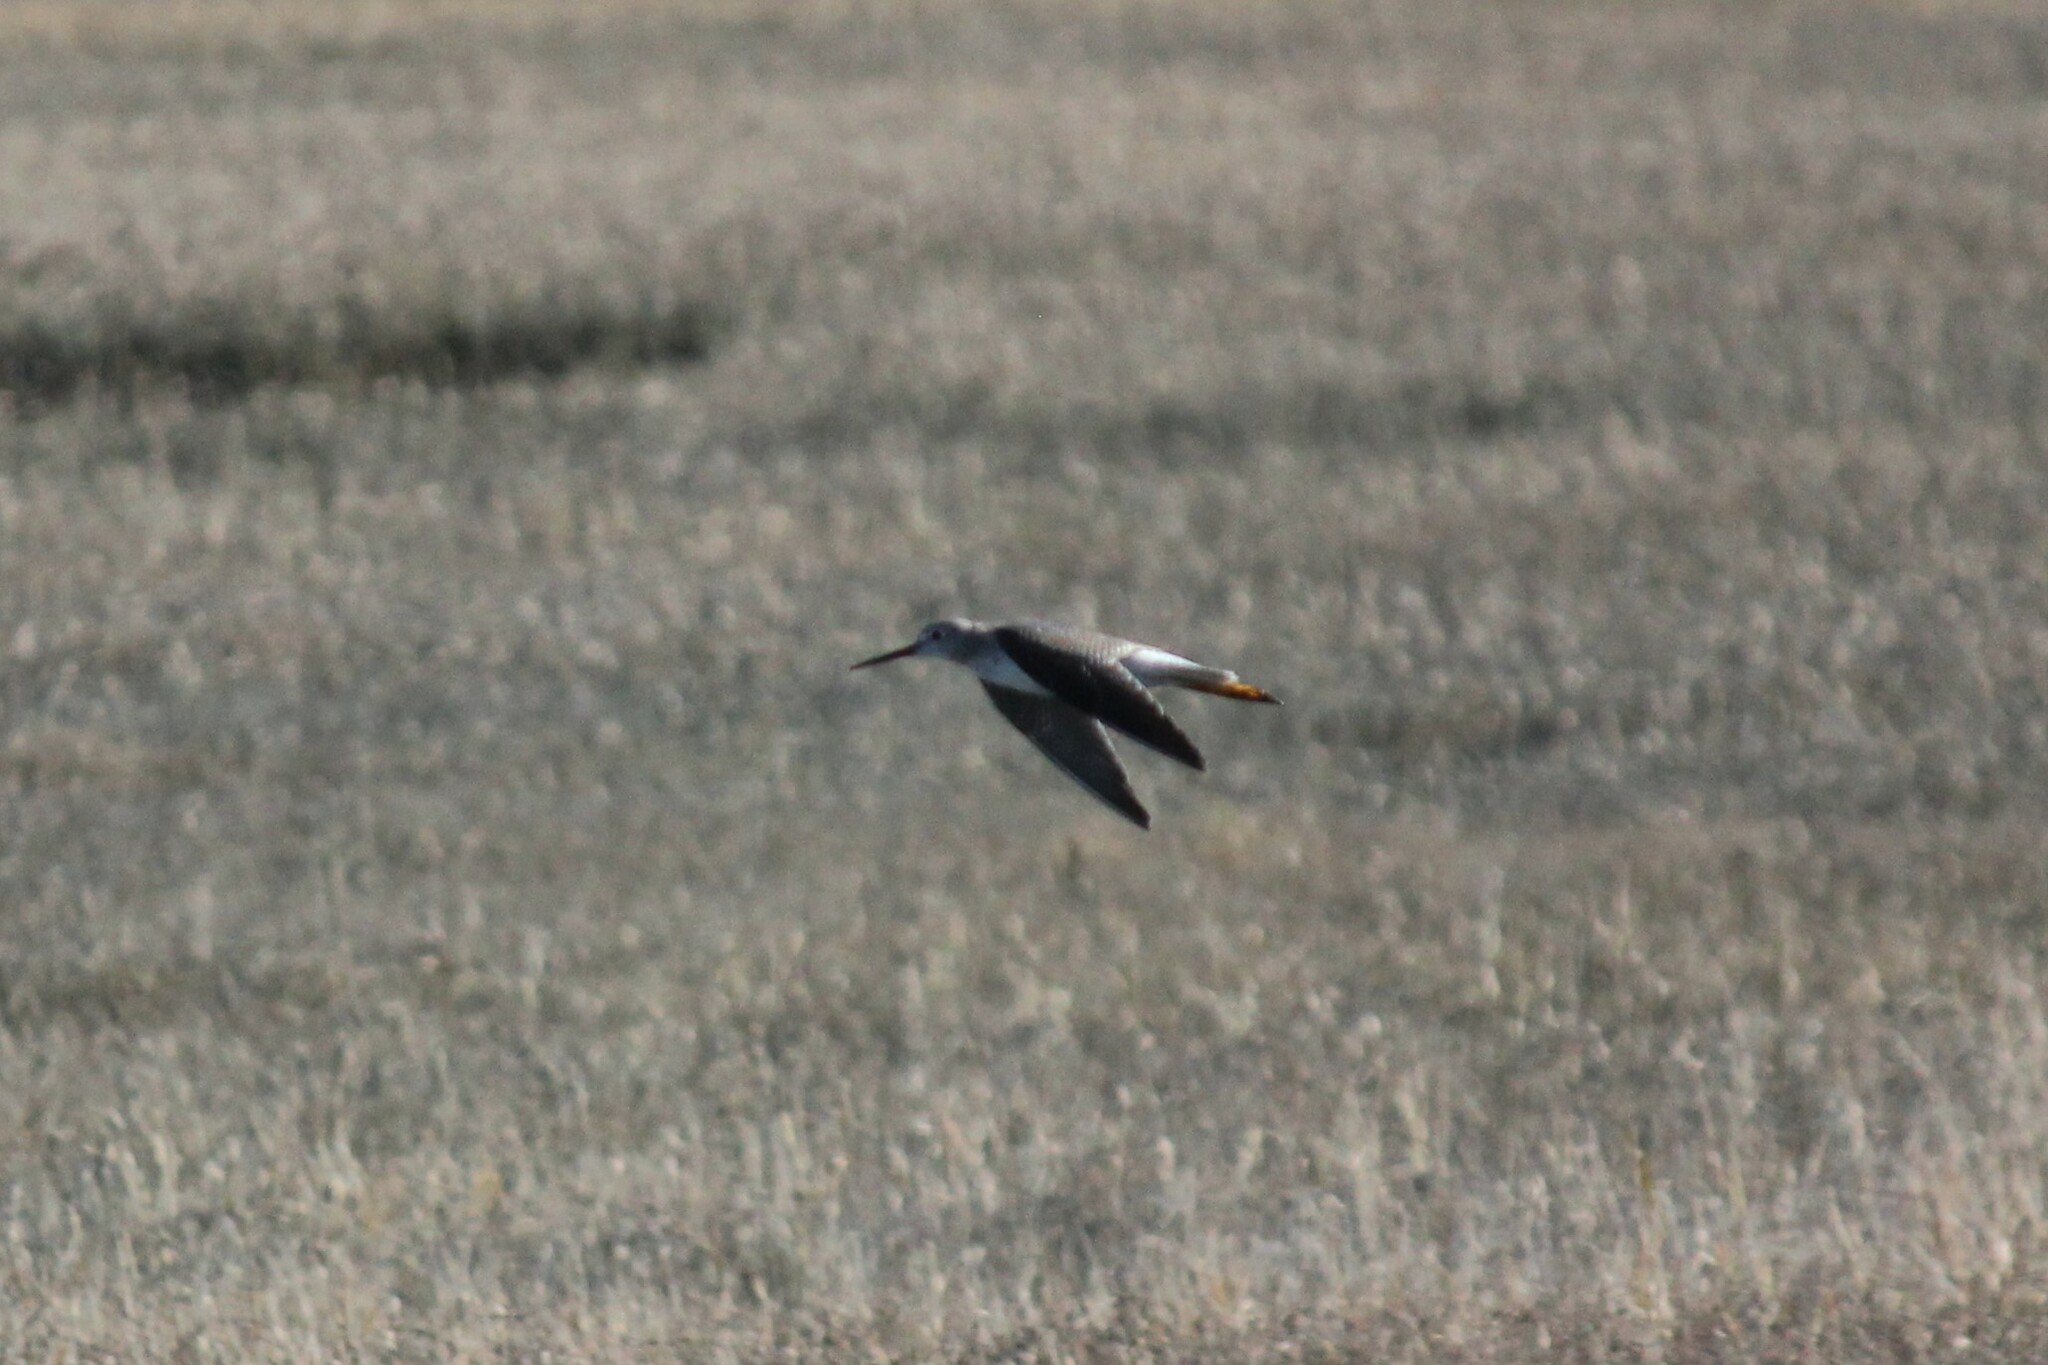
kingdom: Animalia
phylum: Chordata
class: Aves
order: Charadriiformes
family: Scolopacidae
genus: Tringa
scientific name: Tringa melanoleuca
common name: Greater yellowlegs
